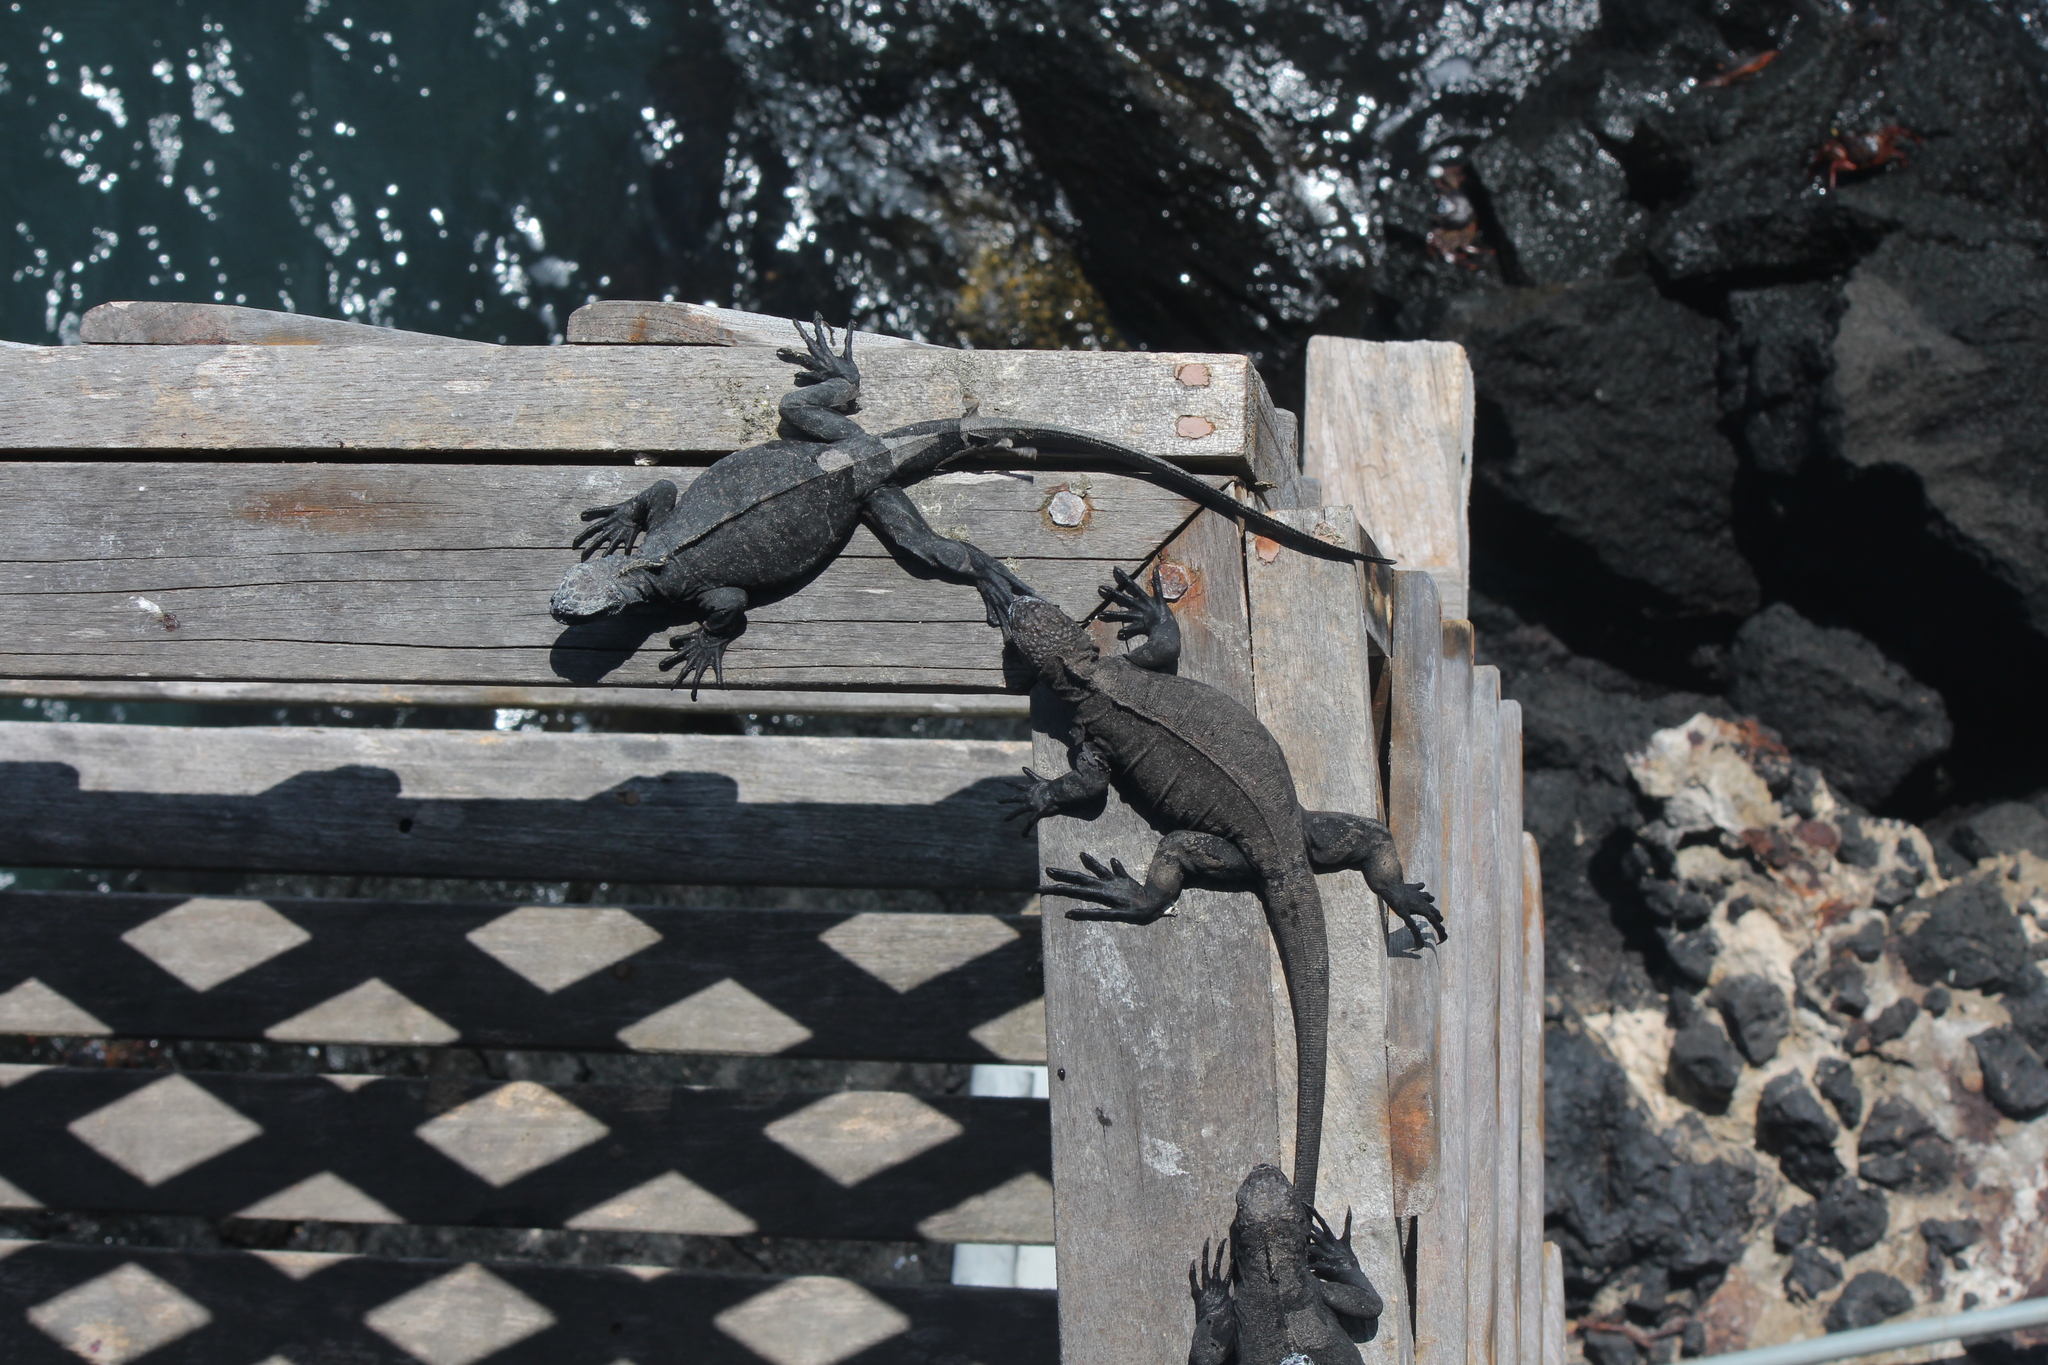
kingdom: Animalia
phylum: Chordata
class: Squamata
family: Iguanidae
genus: Amblyrhynchus
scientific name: Amblyrhynchus cristatus
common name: Marine iguana
